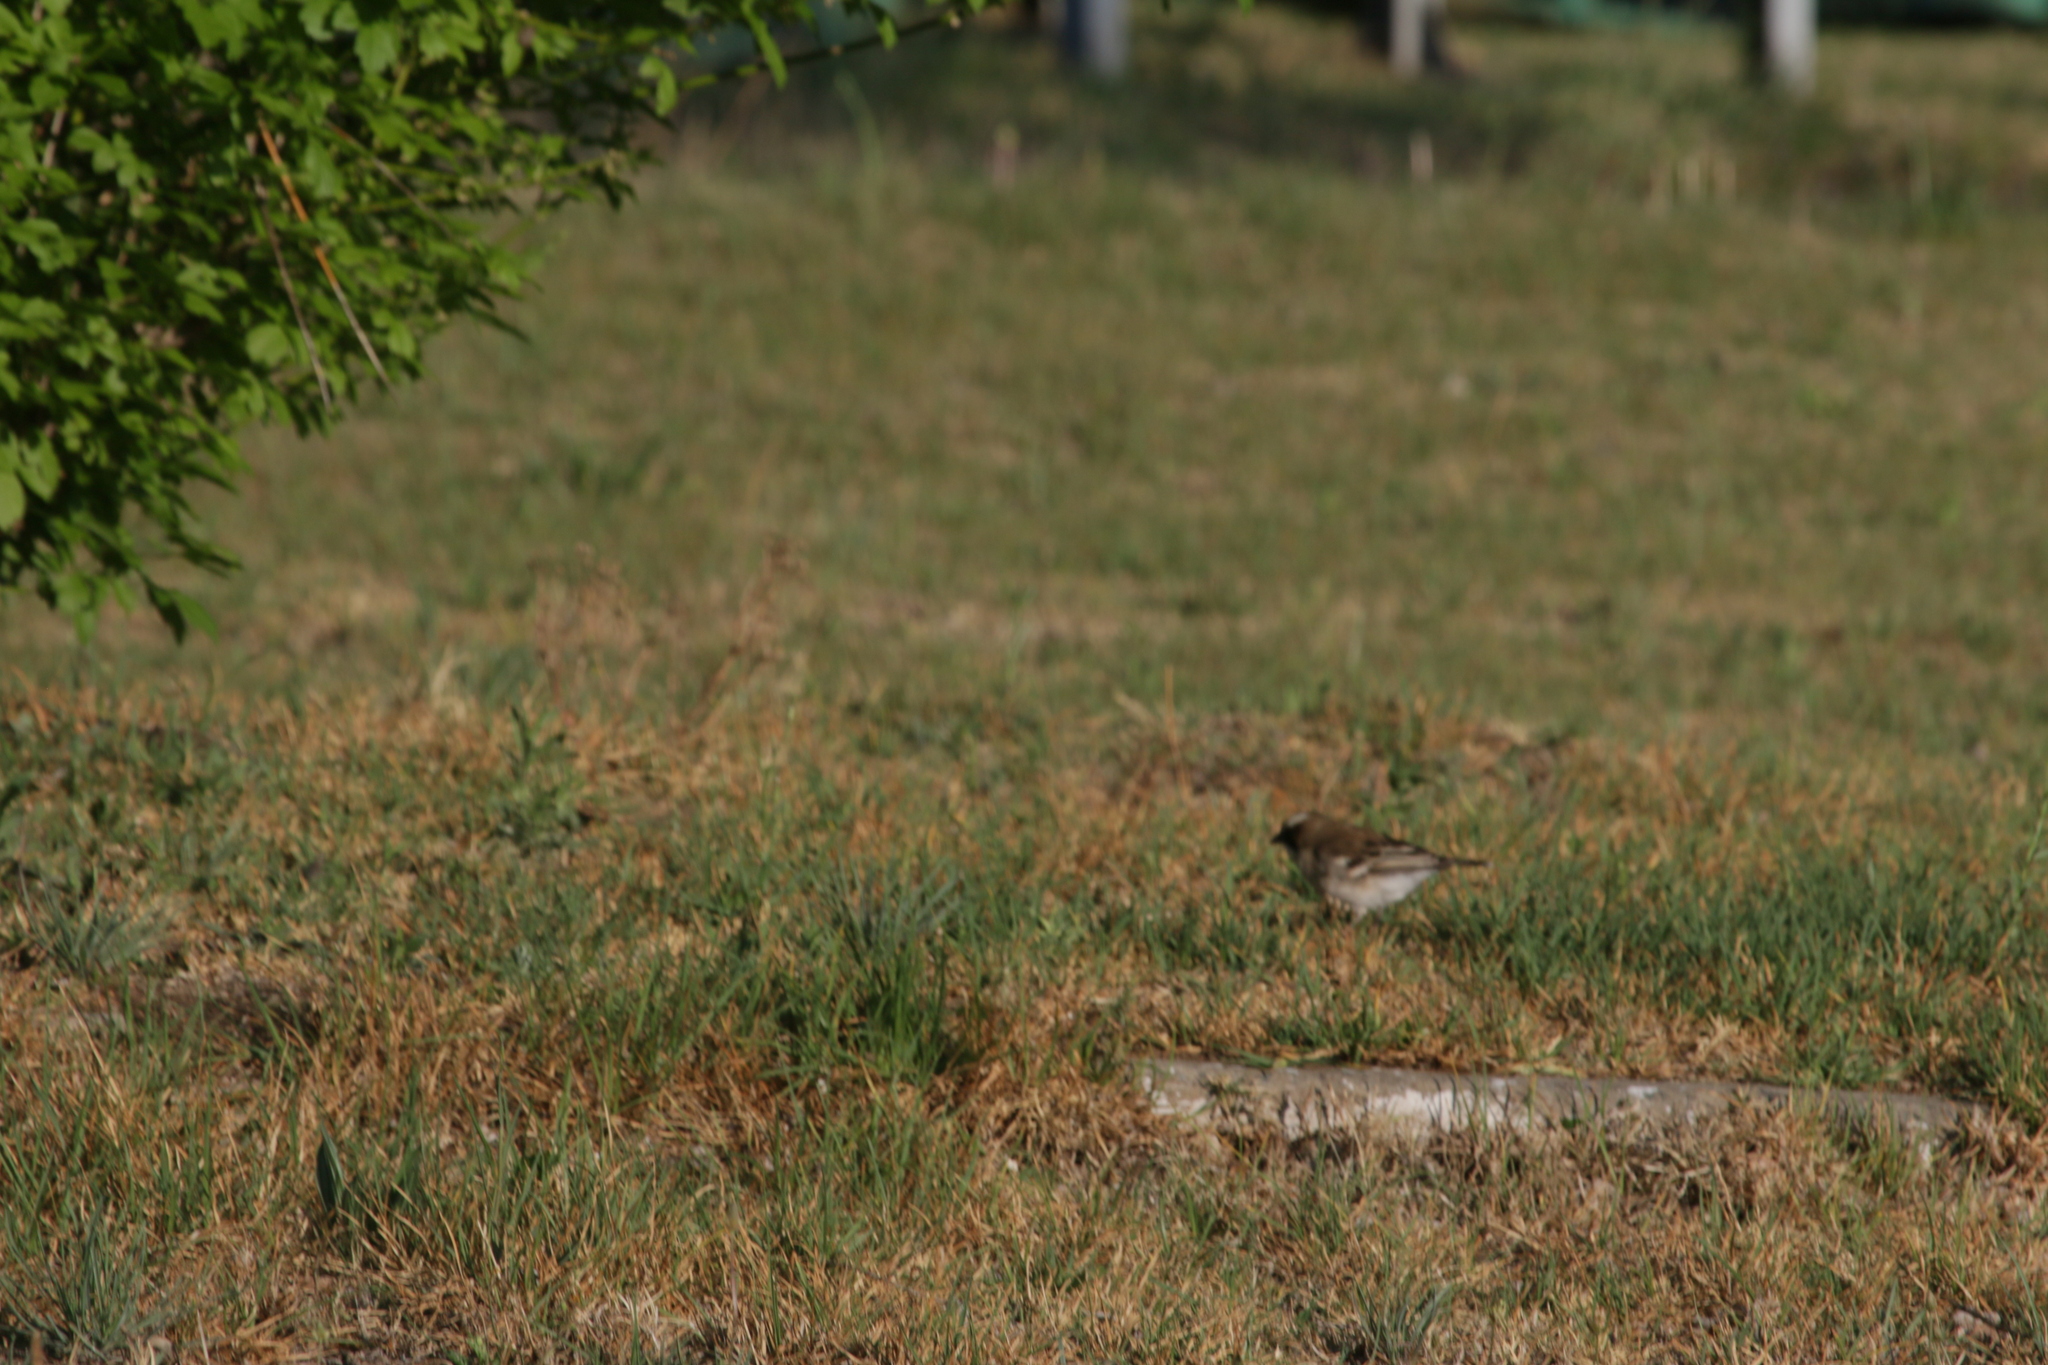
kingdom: Animalia
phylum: Chordata
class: Aves
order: Passeriformes
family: Passeridae
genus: Plocepasser
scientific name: Plocepasser mahali
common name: White-browed sparrow-weaver
